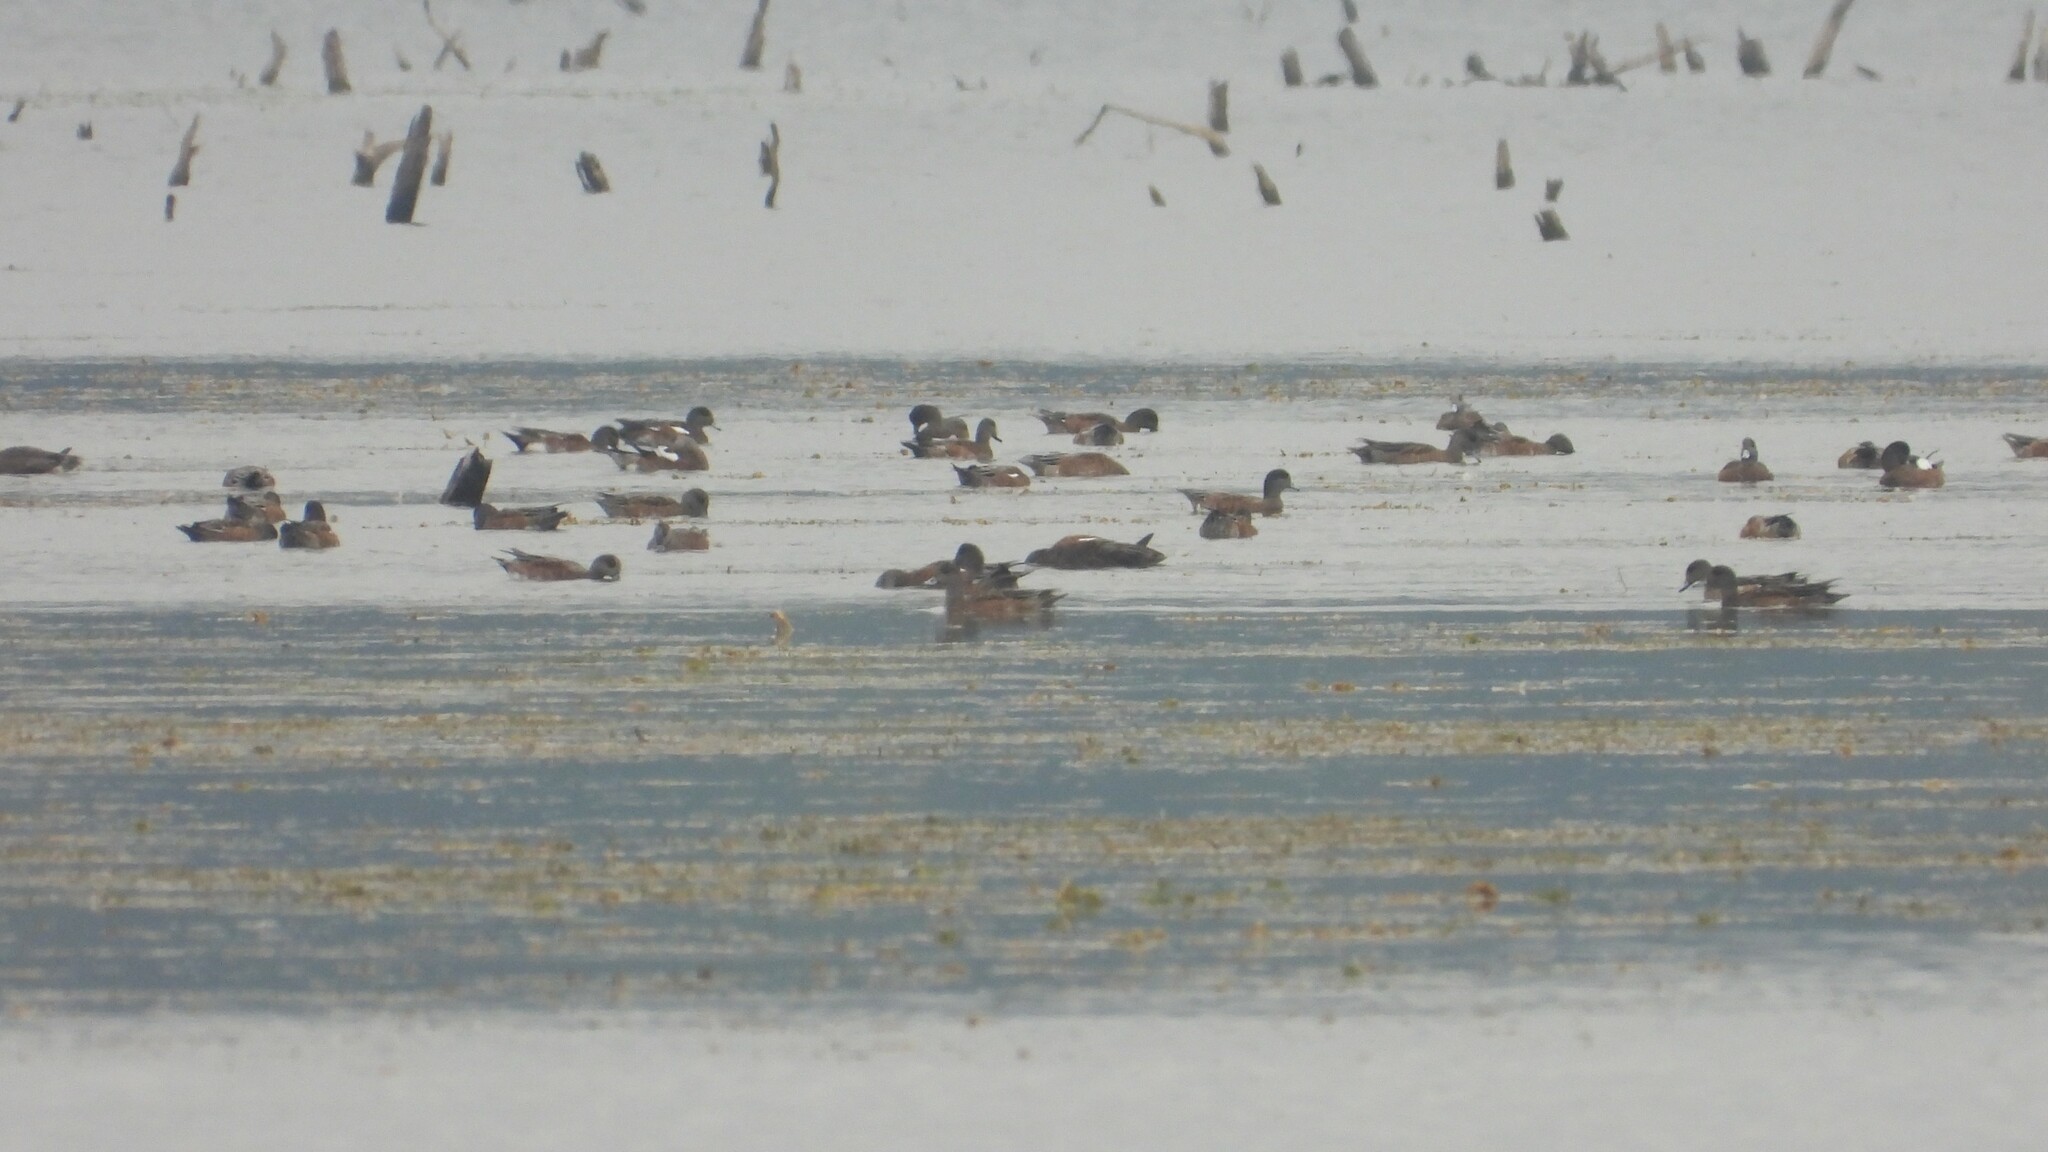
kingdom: Animalia
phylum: Chordata
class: Aves
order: Anseriformes
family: Anatidae
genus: Mareca
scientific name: Mareca americana
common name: American wigeon
